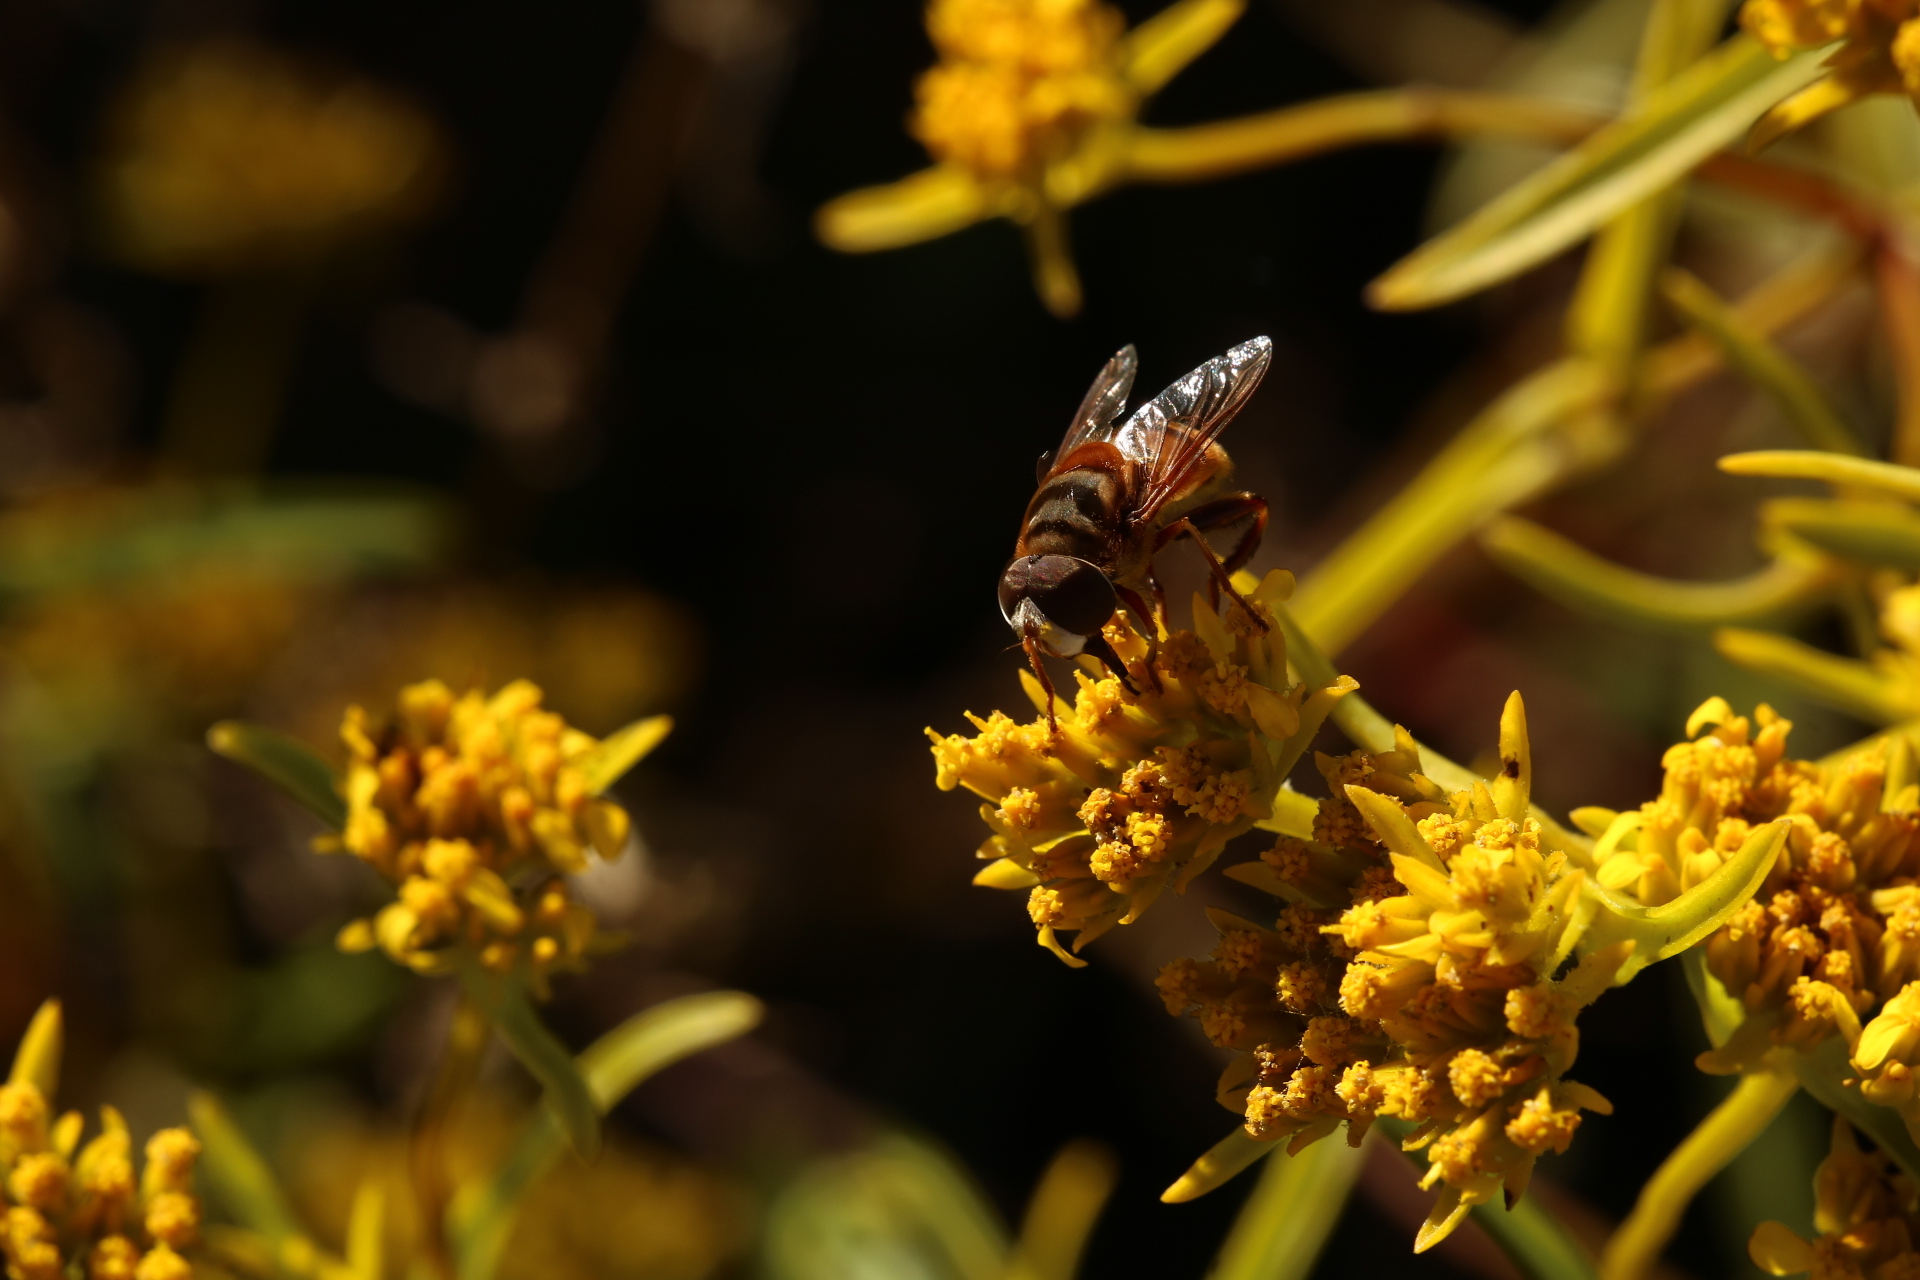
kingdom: Animalia
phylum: Arthropoda
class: Insecta
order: Diptera
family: Syrphidae
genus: Palpada
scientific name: Palpada vinetorum
